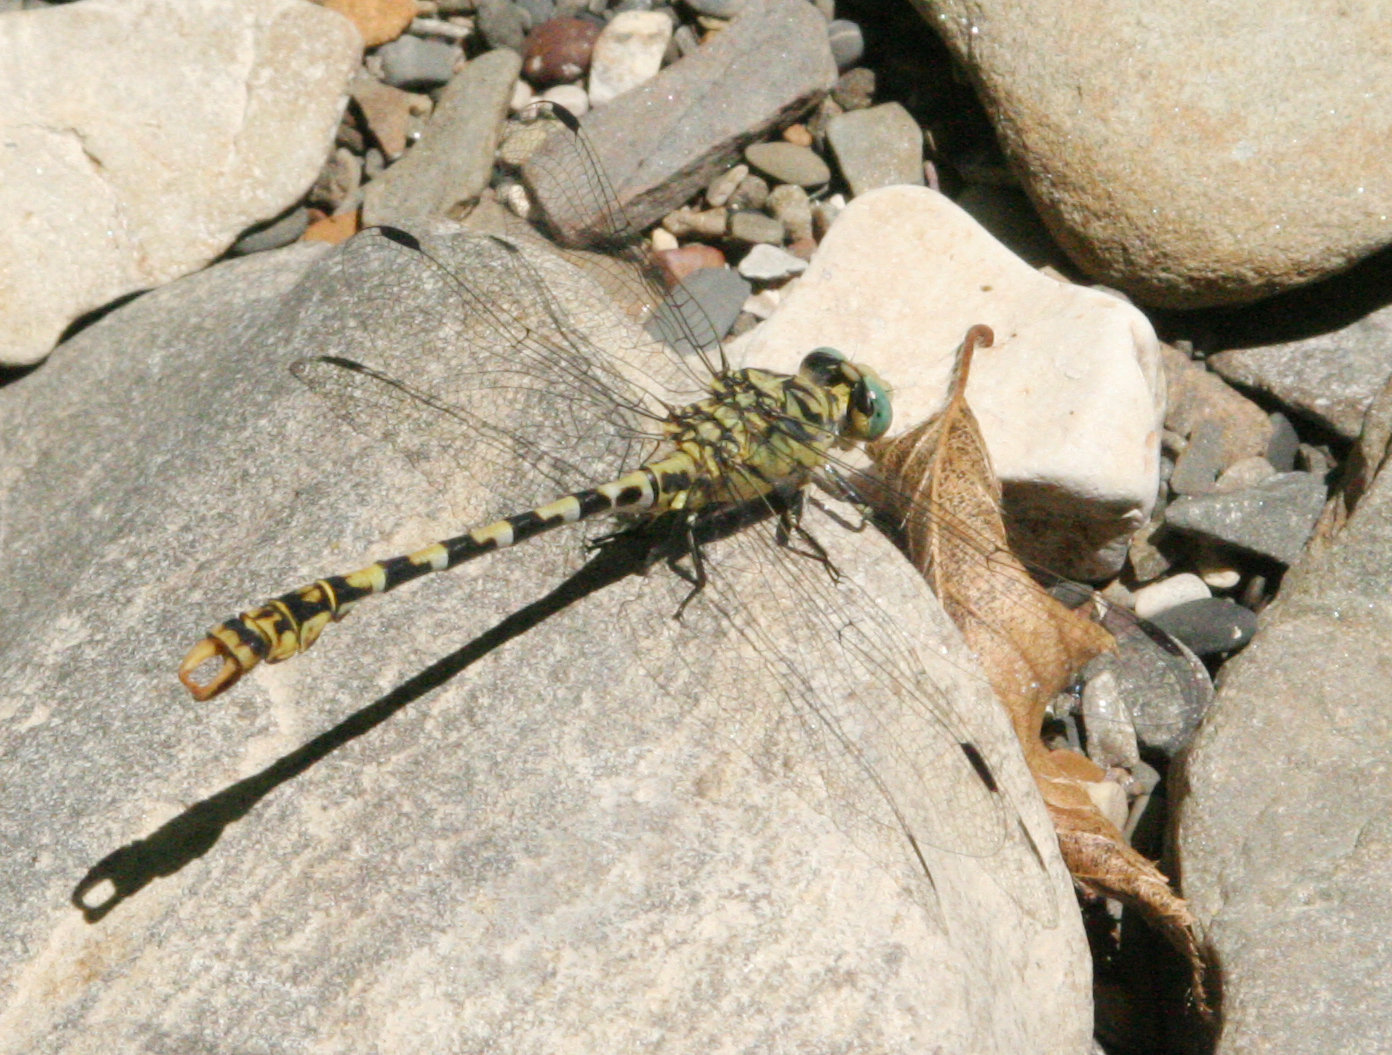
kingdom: Animalia
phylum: Arthropoda
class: Insecta
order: Odonata
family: Gomphidae
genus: Onychogomphus
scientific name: Onychogomphus forcipatus
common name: Small pincertail
